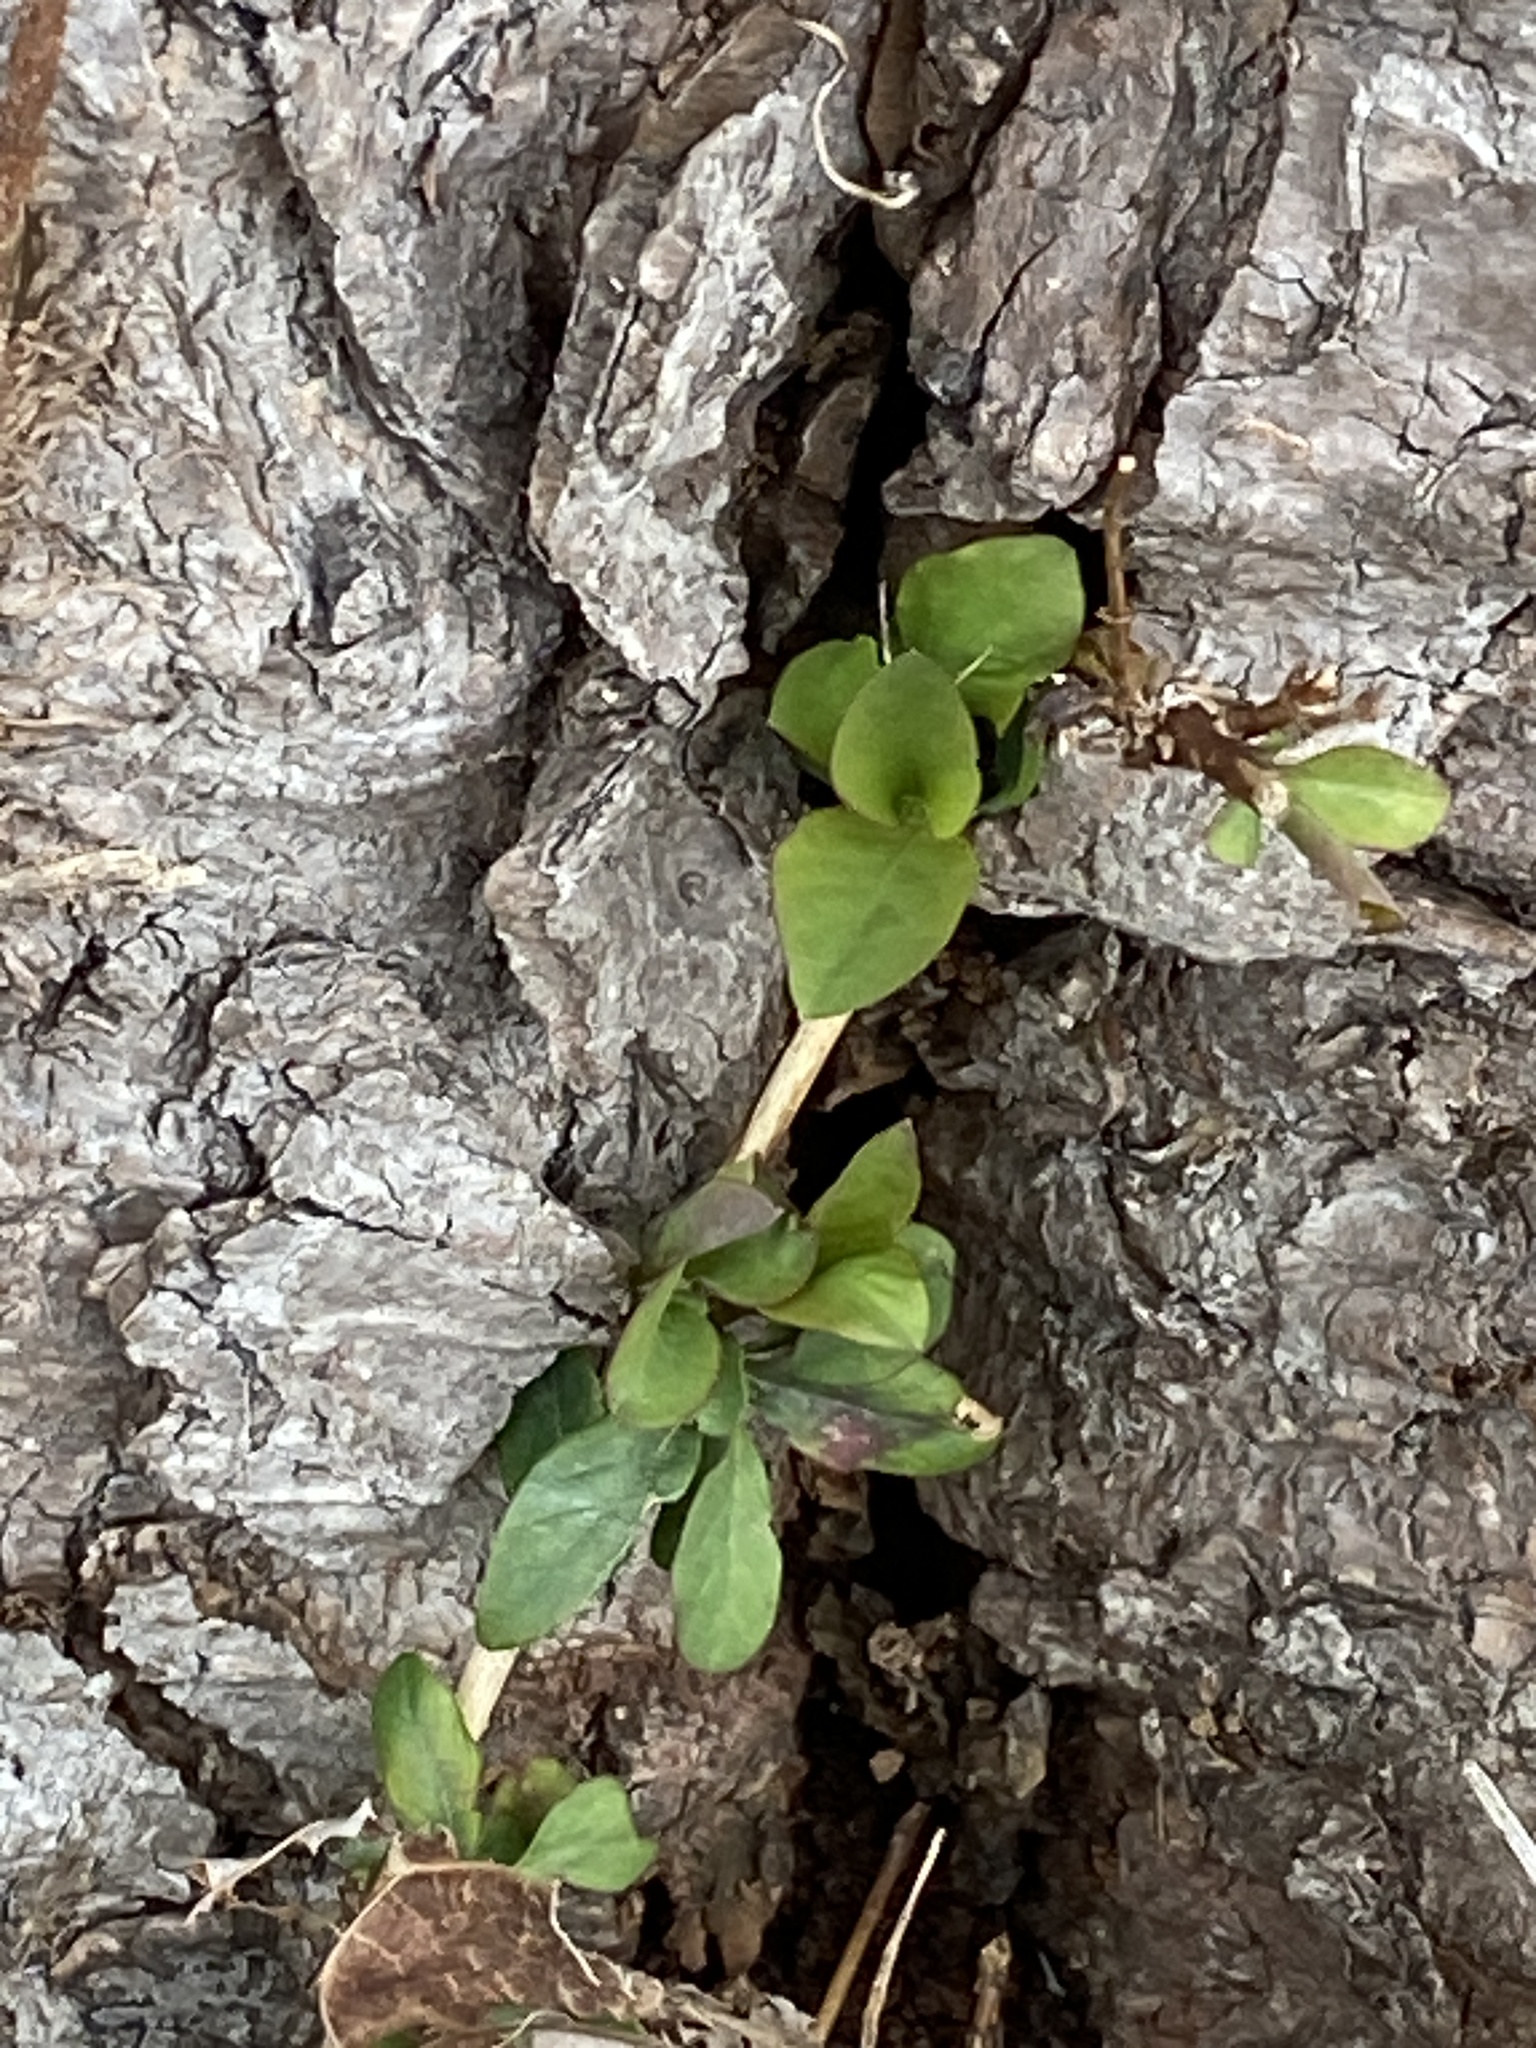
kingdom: Plantae
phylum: Tracheophyta
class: Magnoliopsida
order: Dipsacales
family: Caprifoliaceae
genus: Lonicera
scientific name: Lonicera japonica
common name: Japanese honeysuckle
